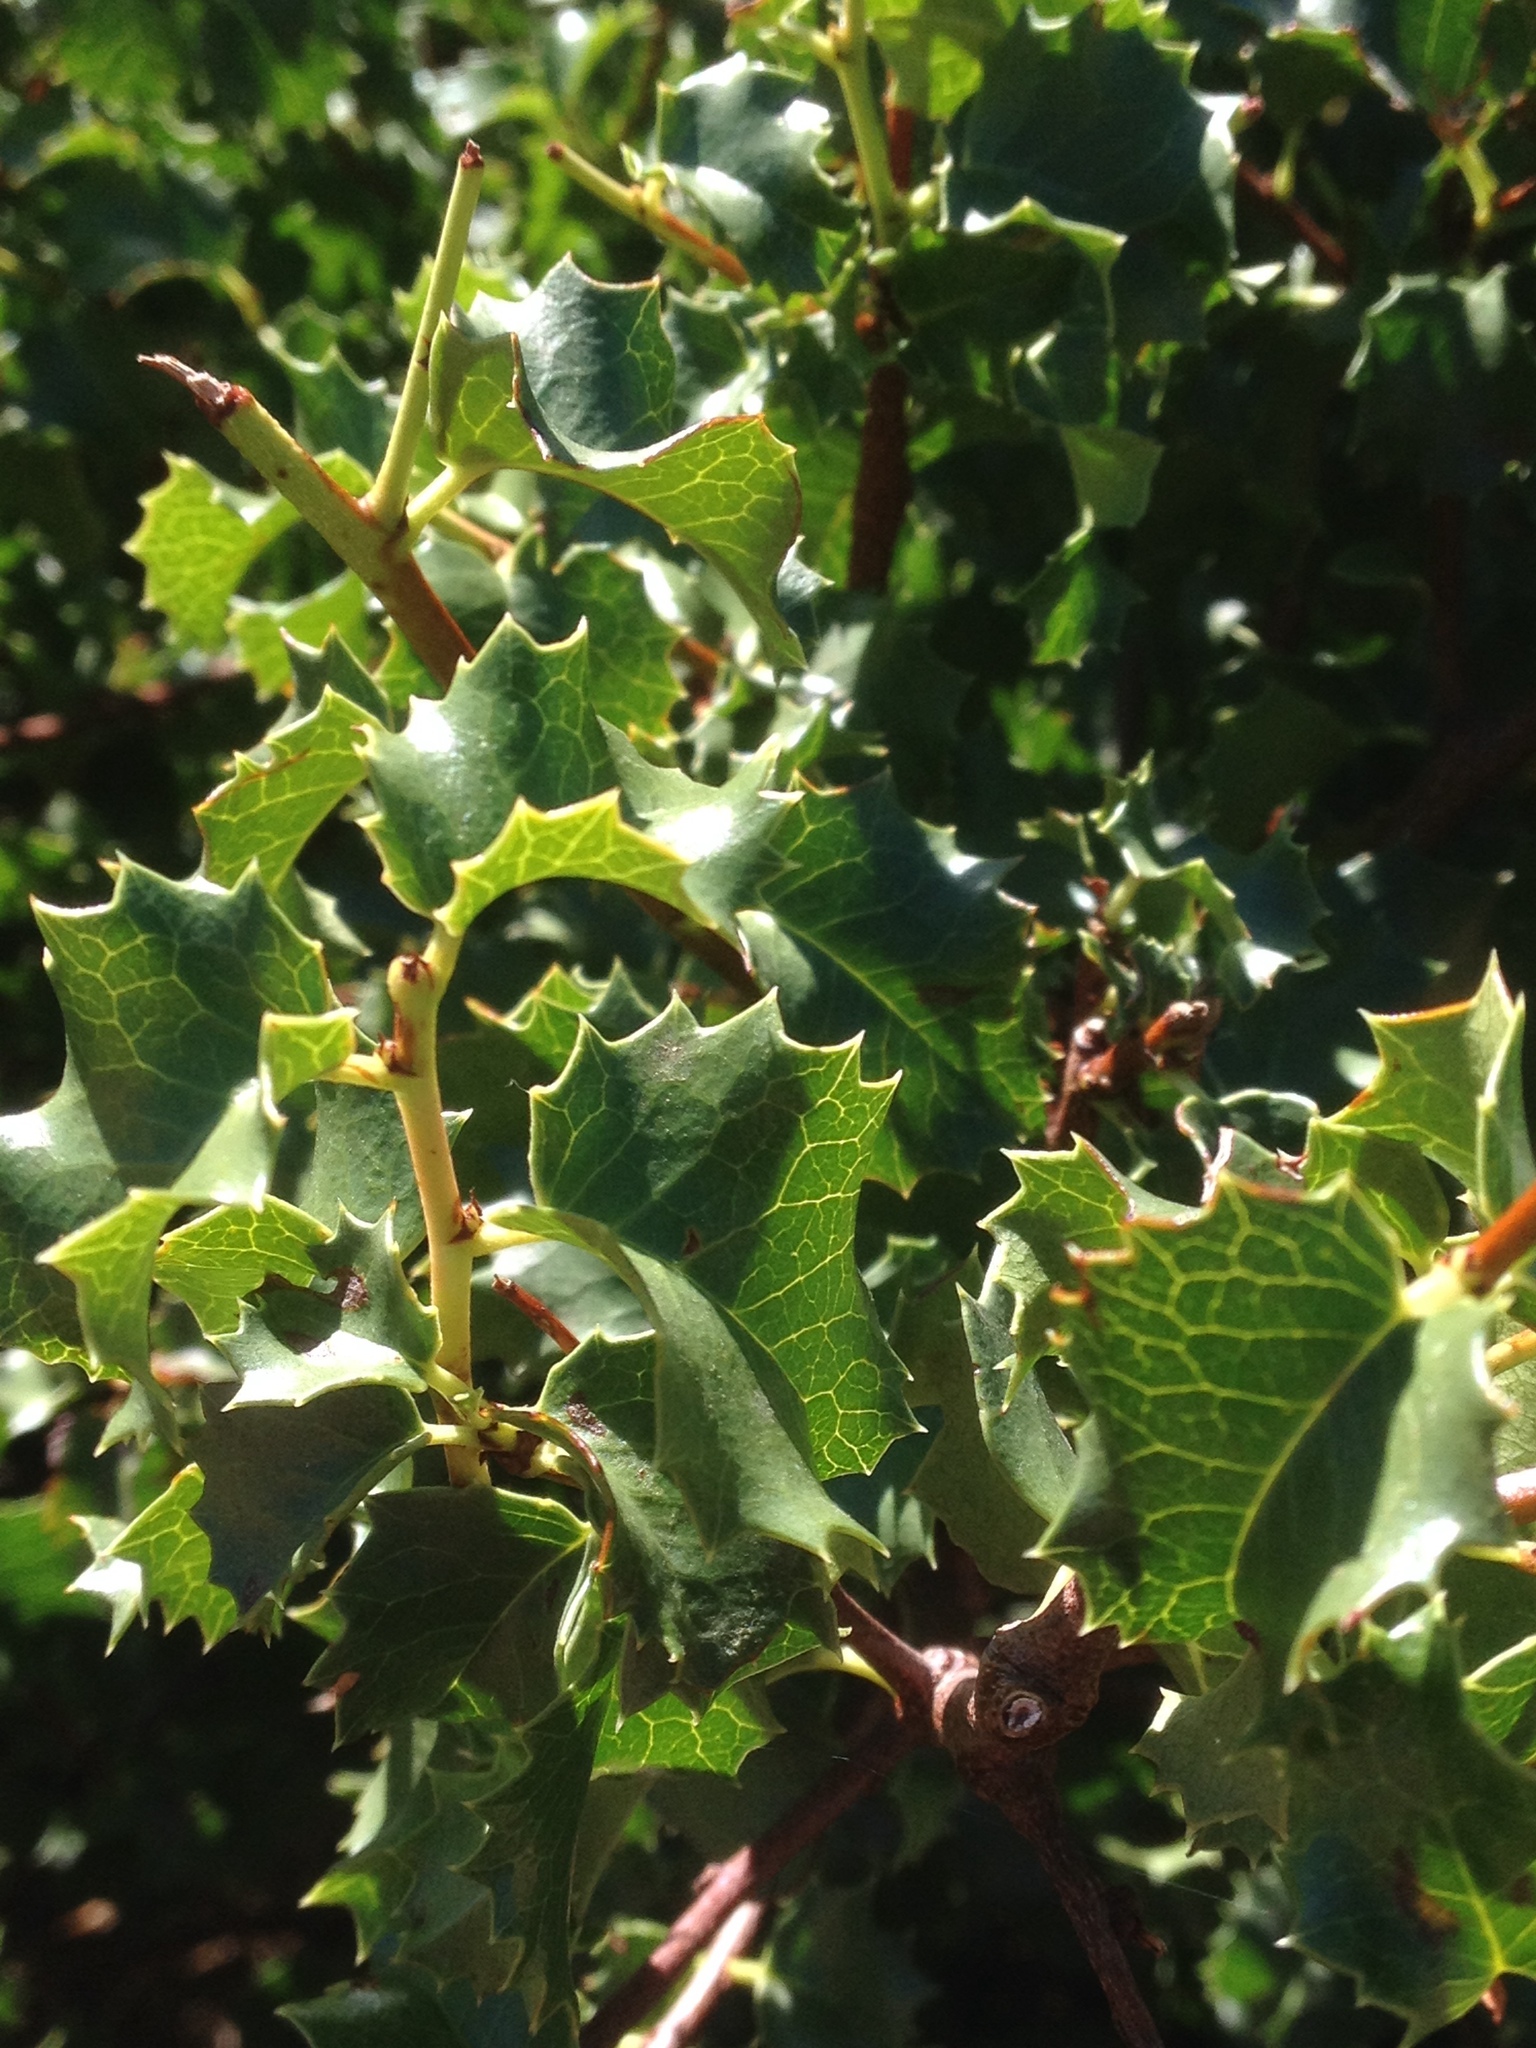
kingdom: Plantae
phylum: Tracheophyta
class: Magnoliopsida
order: Rosales
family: Rosaceae
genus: Prunus
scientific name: Prunus ilicifolia
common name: Hollyleaf cherry
